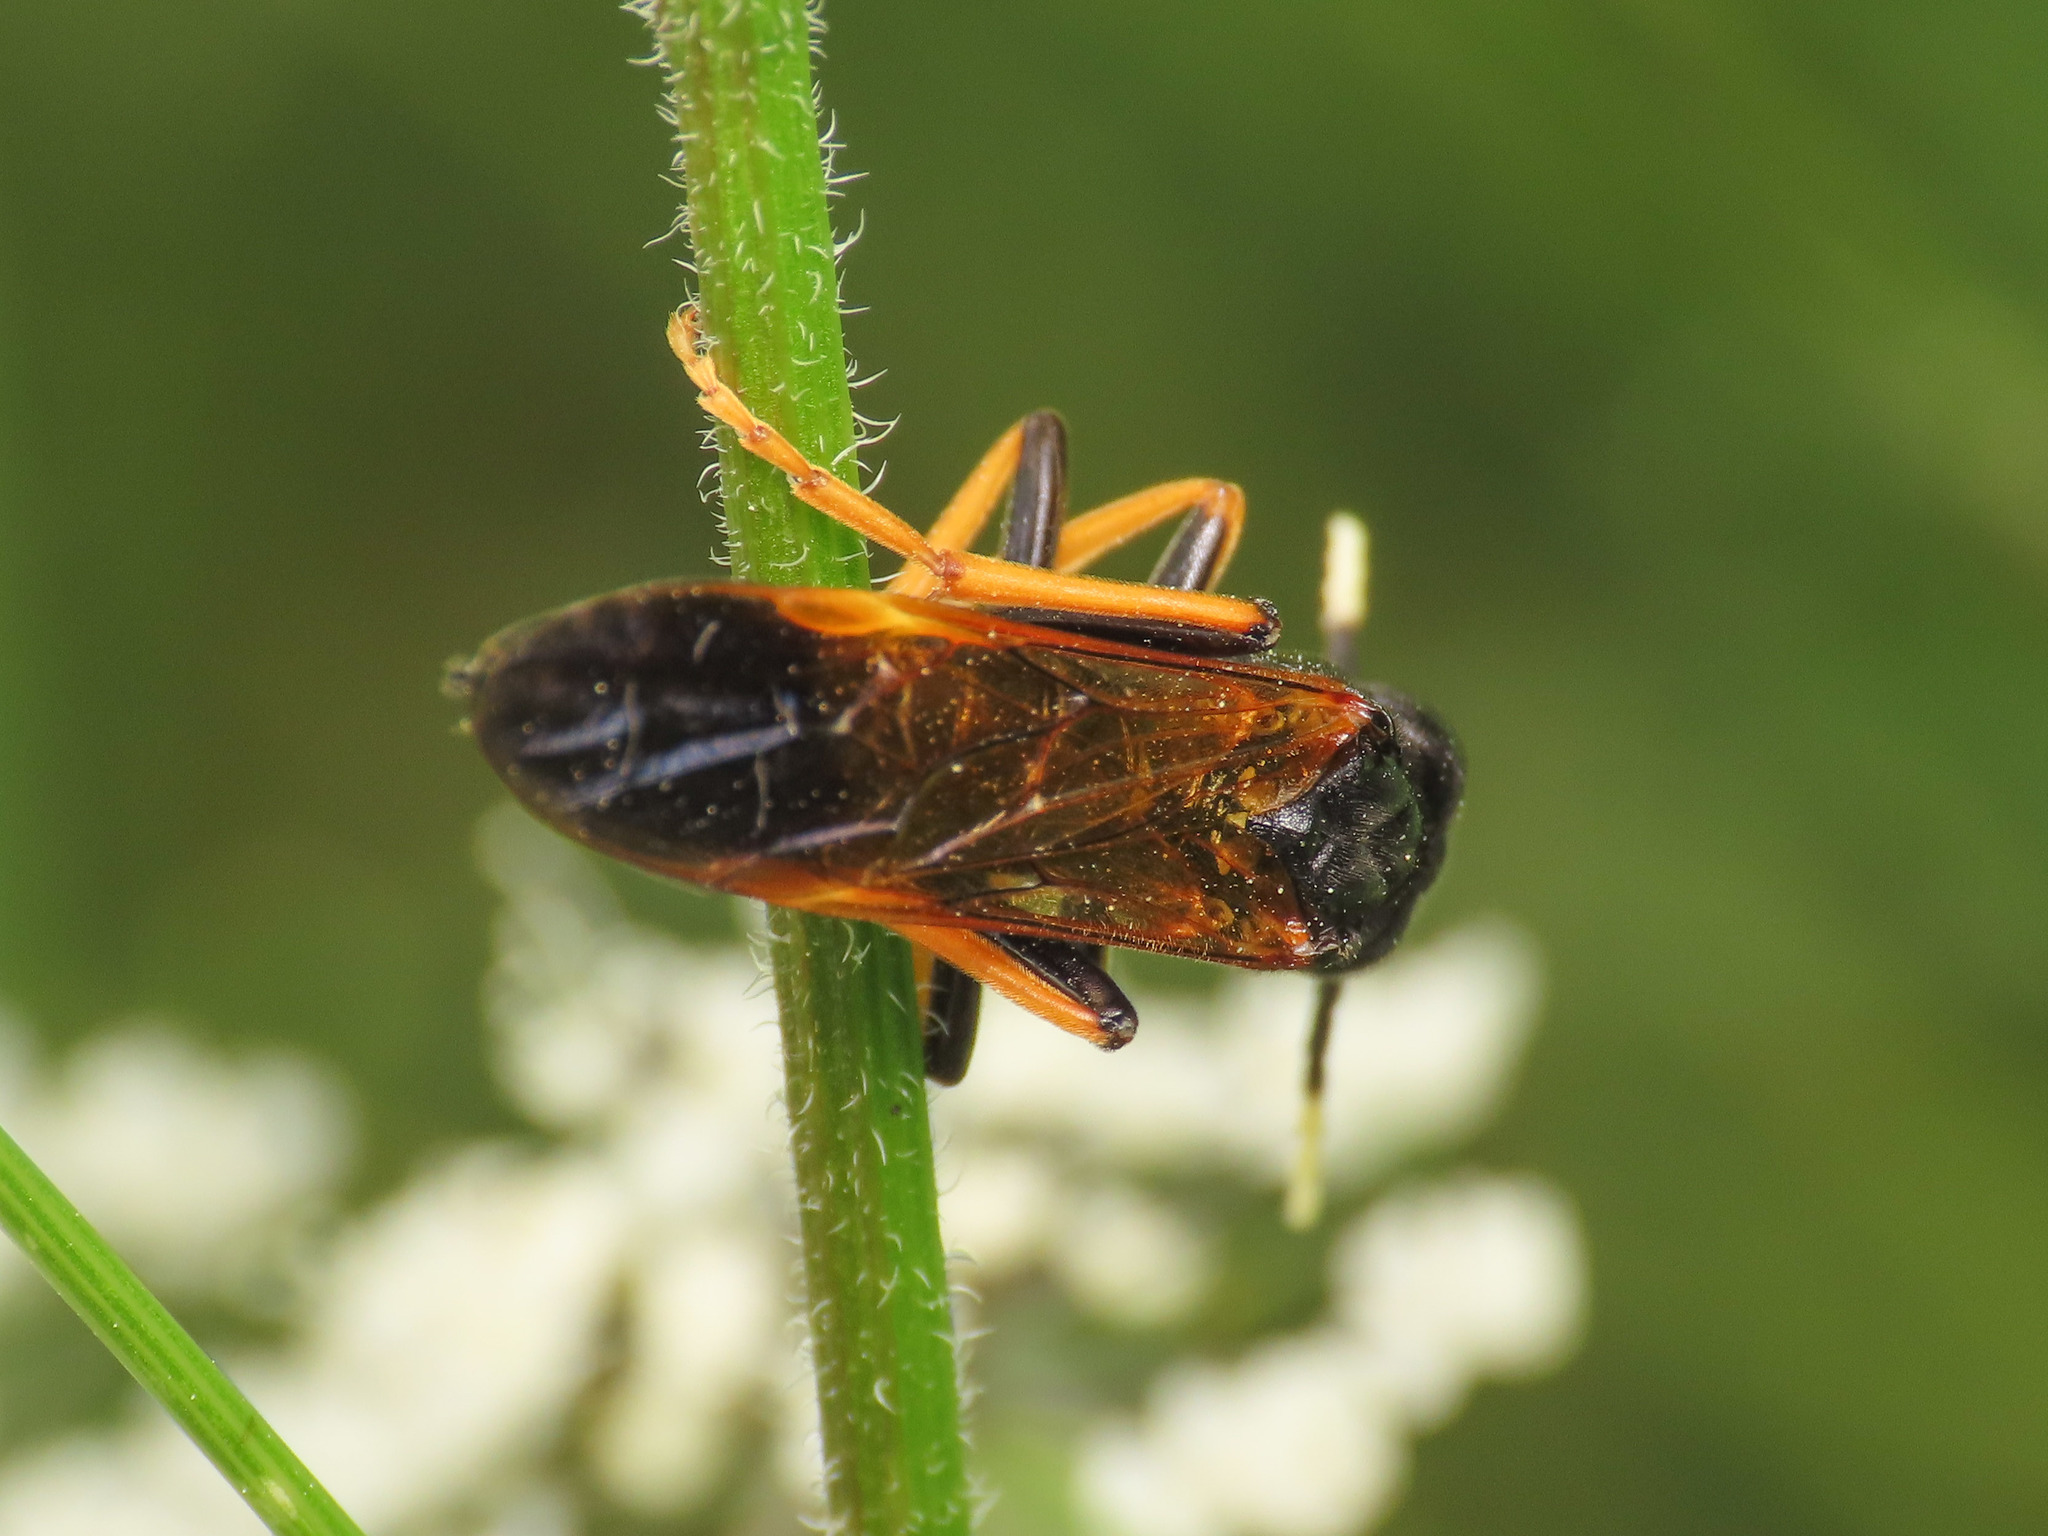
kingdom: Animalia
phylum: Arthropoda
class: Insecta
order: Hymenoptera
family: Tenthredinidae
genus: Tenthredo
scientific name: Tenthredo crassa
